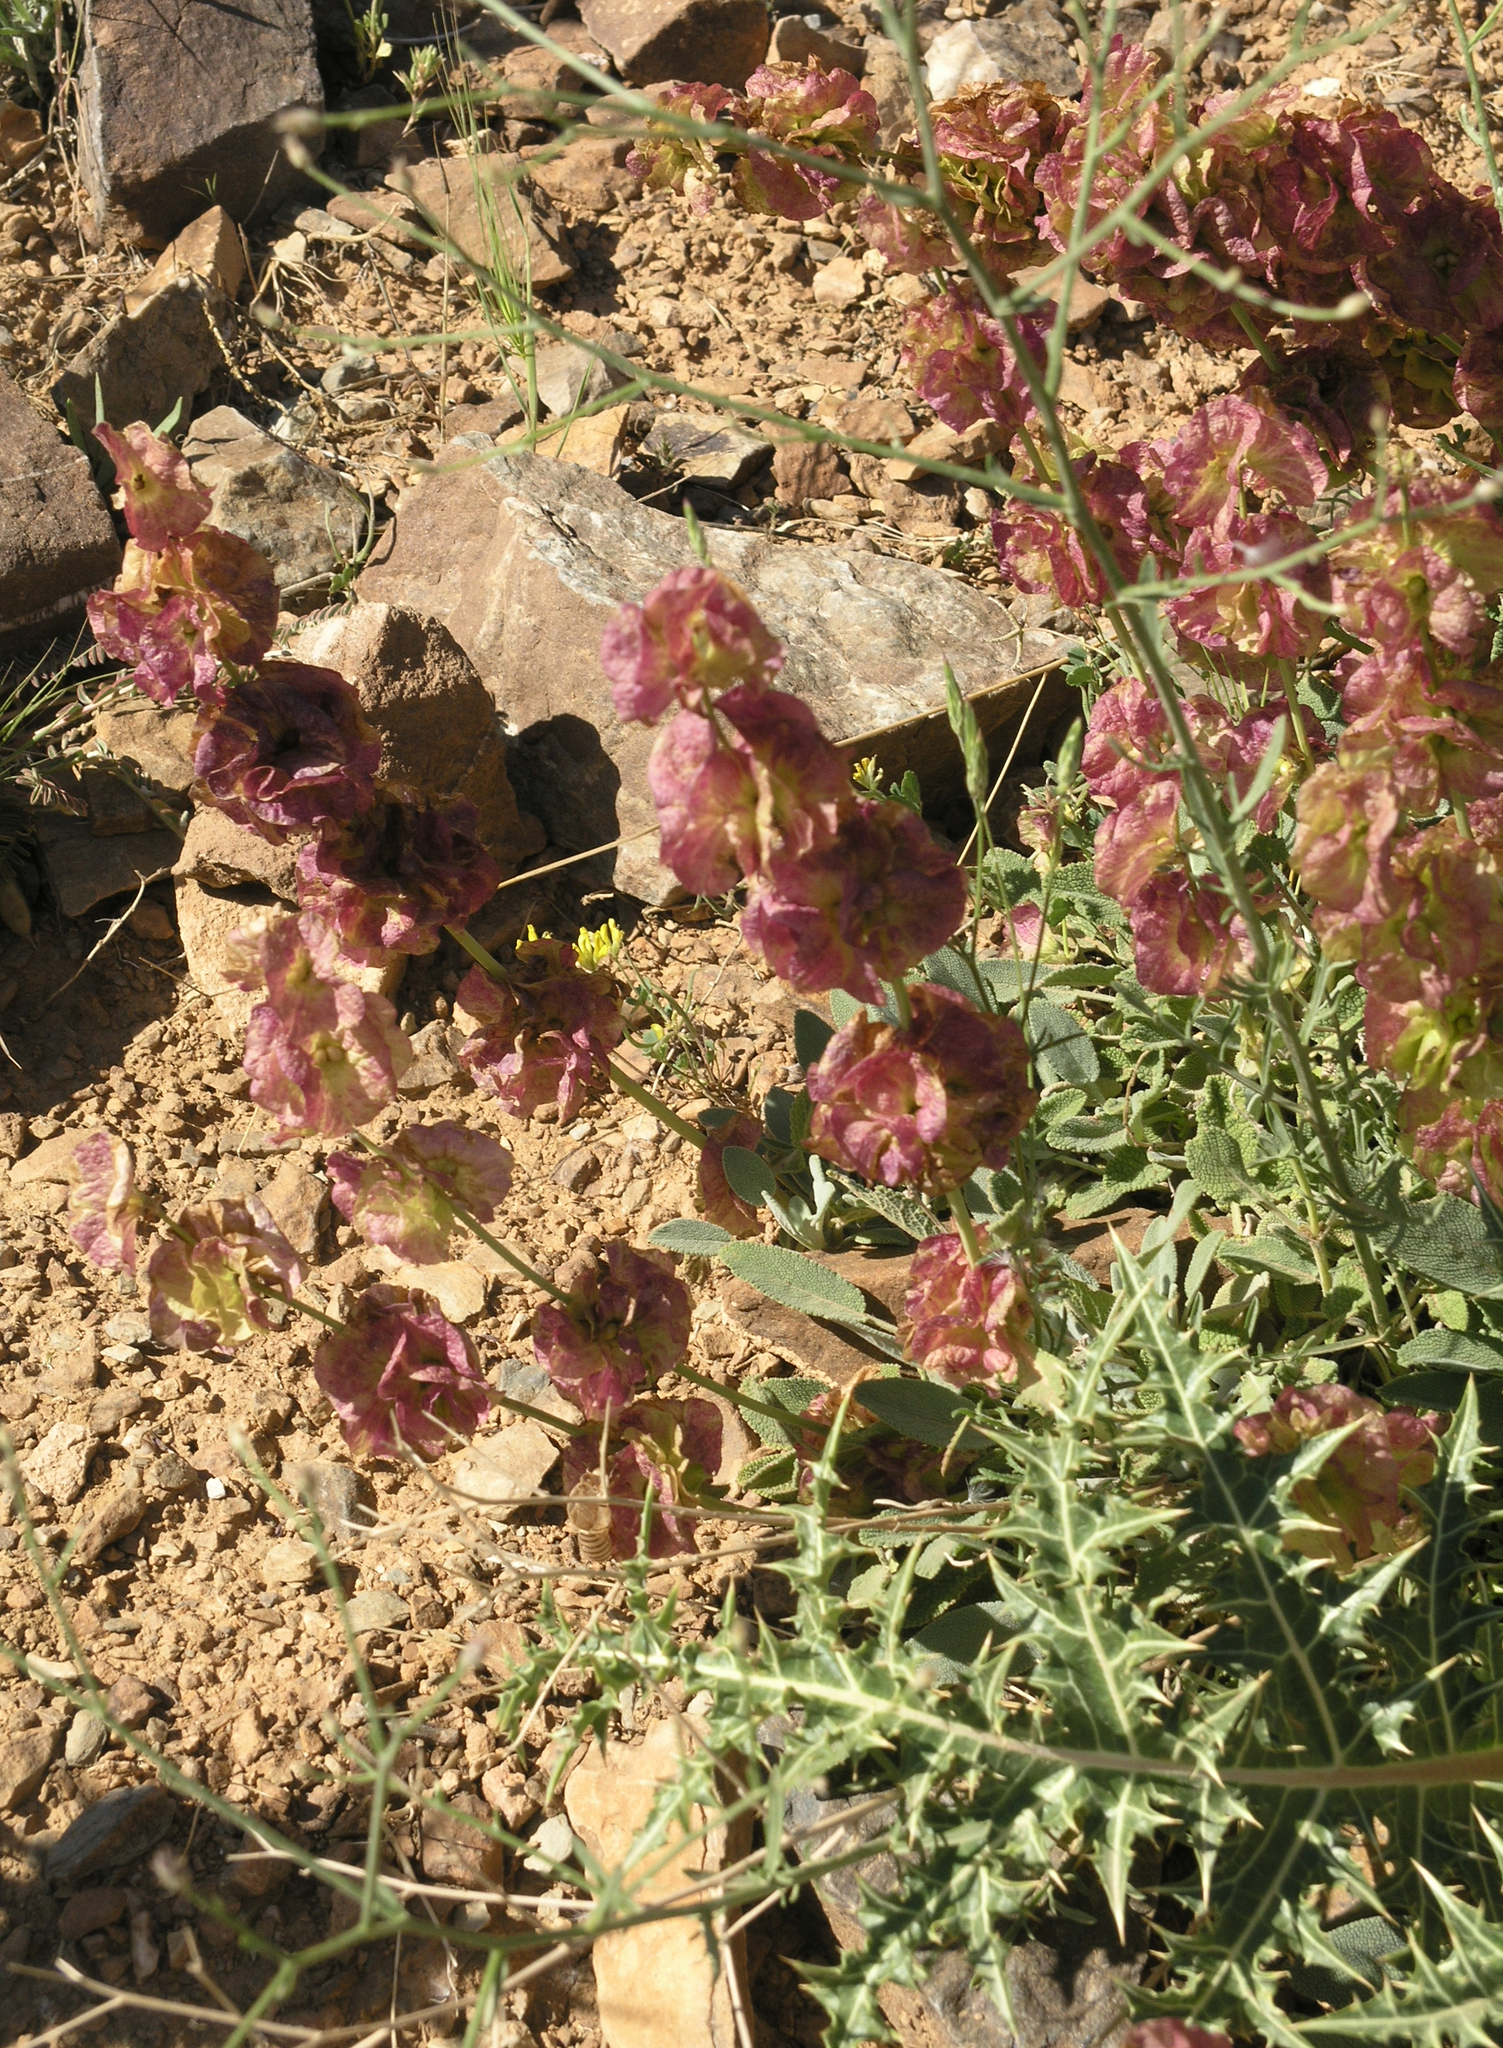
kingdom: Plantae
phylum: Tracheophyta
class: Magnoliopsida
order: Lamiales
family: Lamiaceae
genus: Salvia
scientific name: Salvia multicaulis
